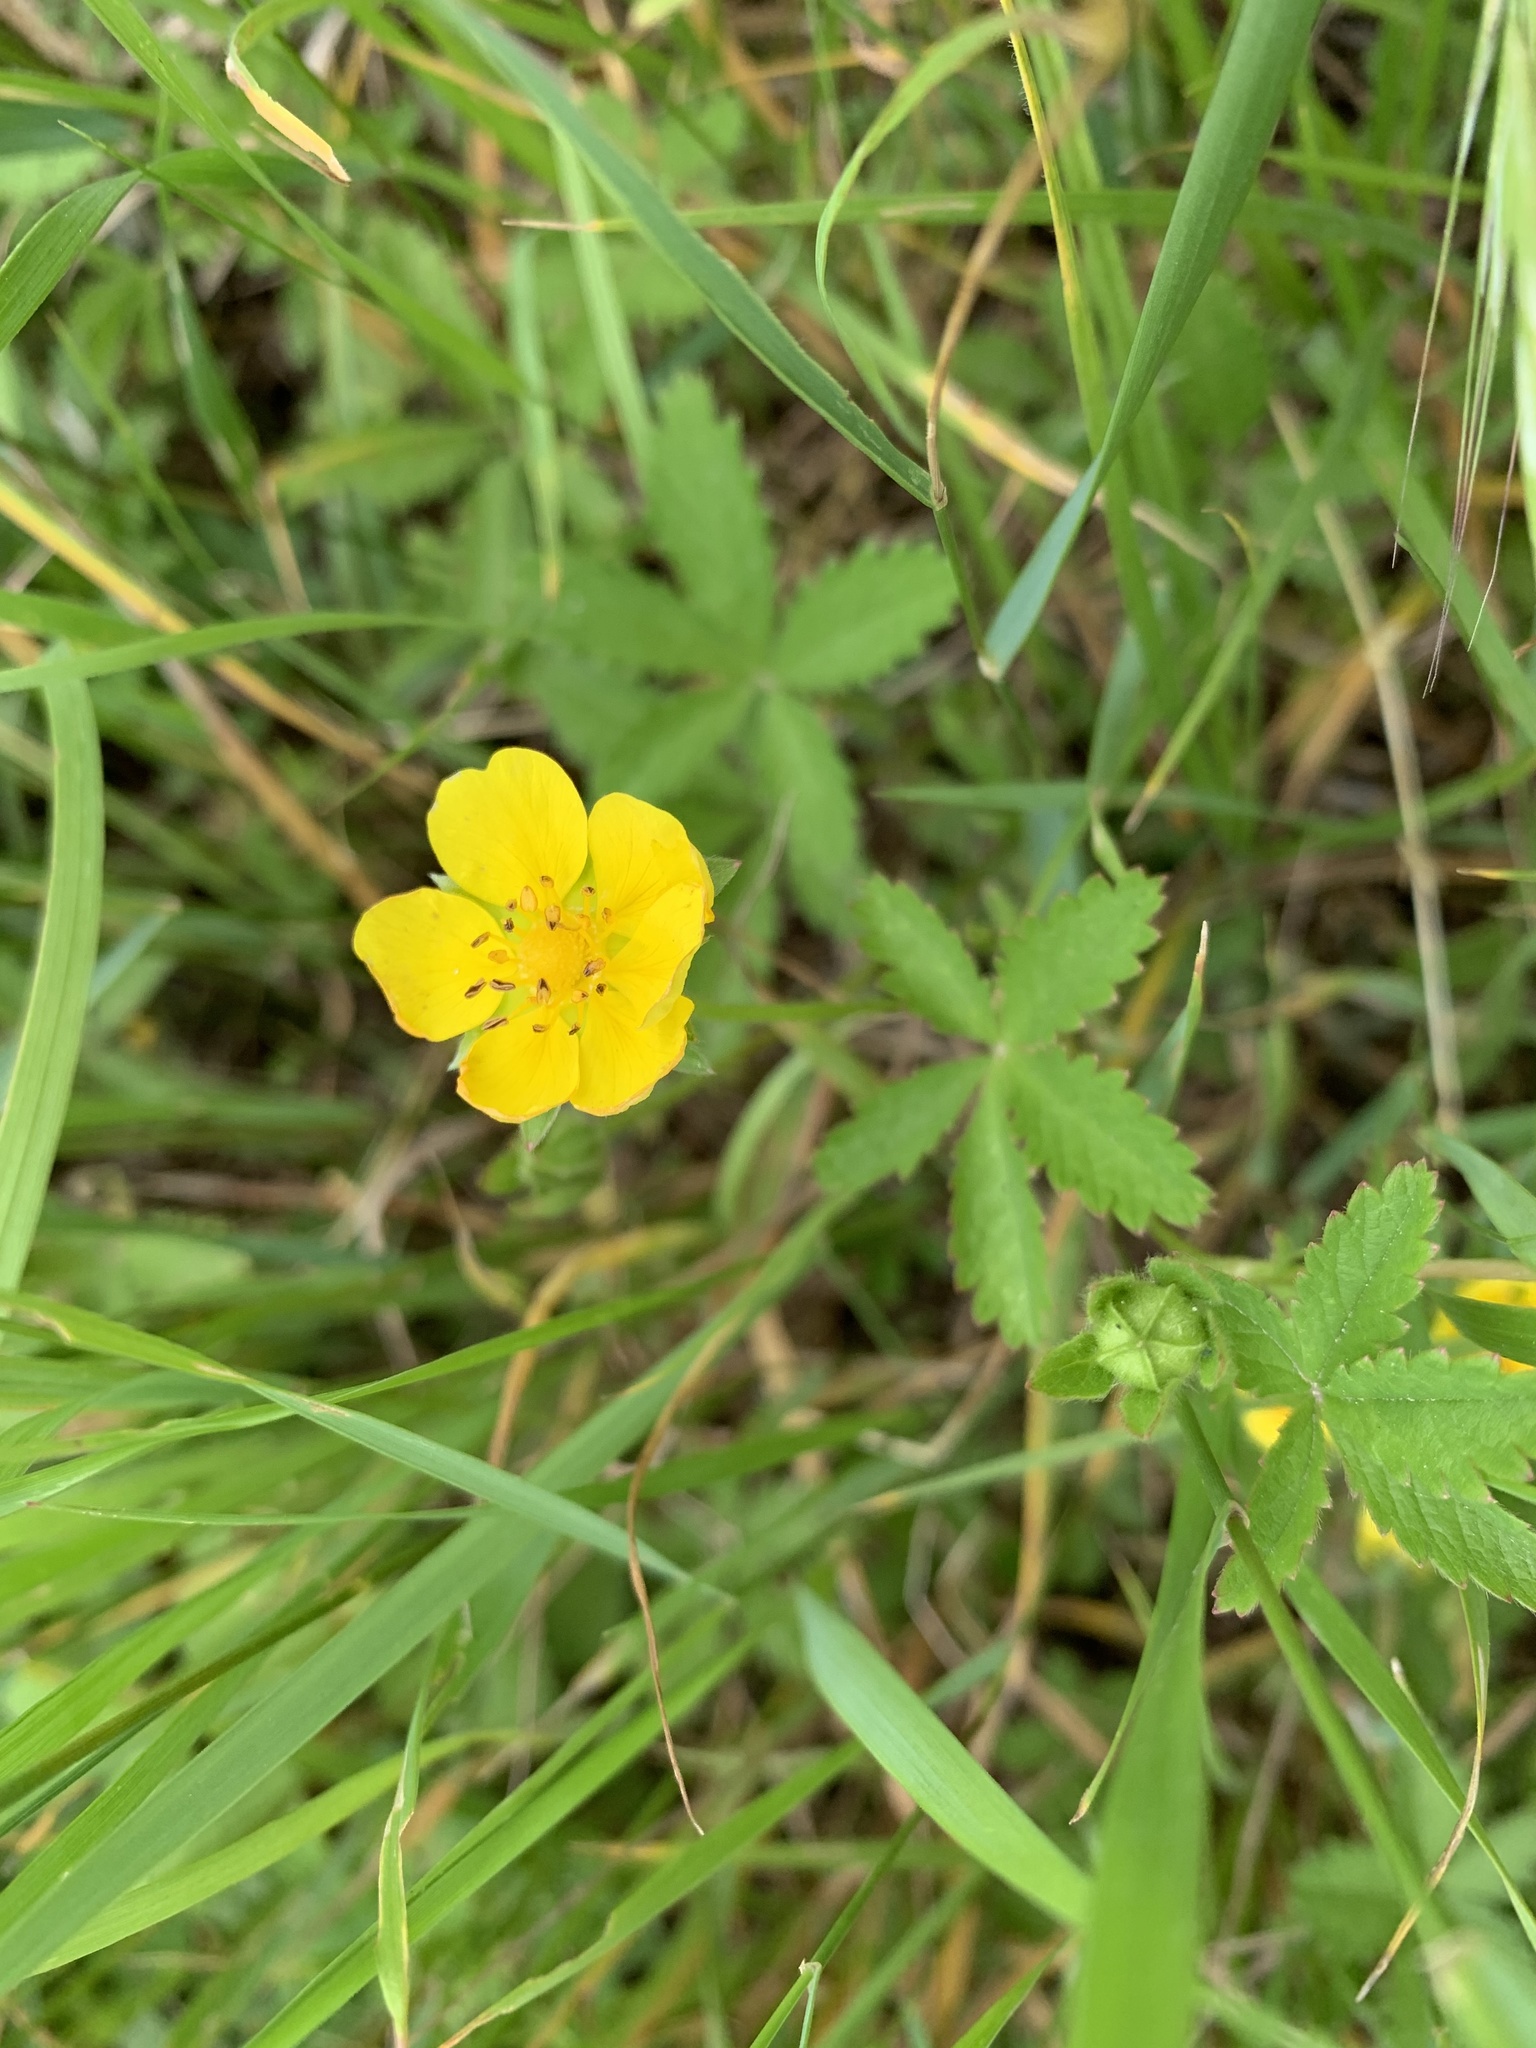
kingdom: Plantae
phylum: Tracheophyta
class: Magnoliopsida
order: Rosales
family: Rosaceae
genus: Potentilla
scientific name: Potentilla reptans
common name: Creeping cinquefoil
